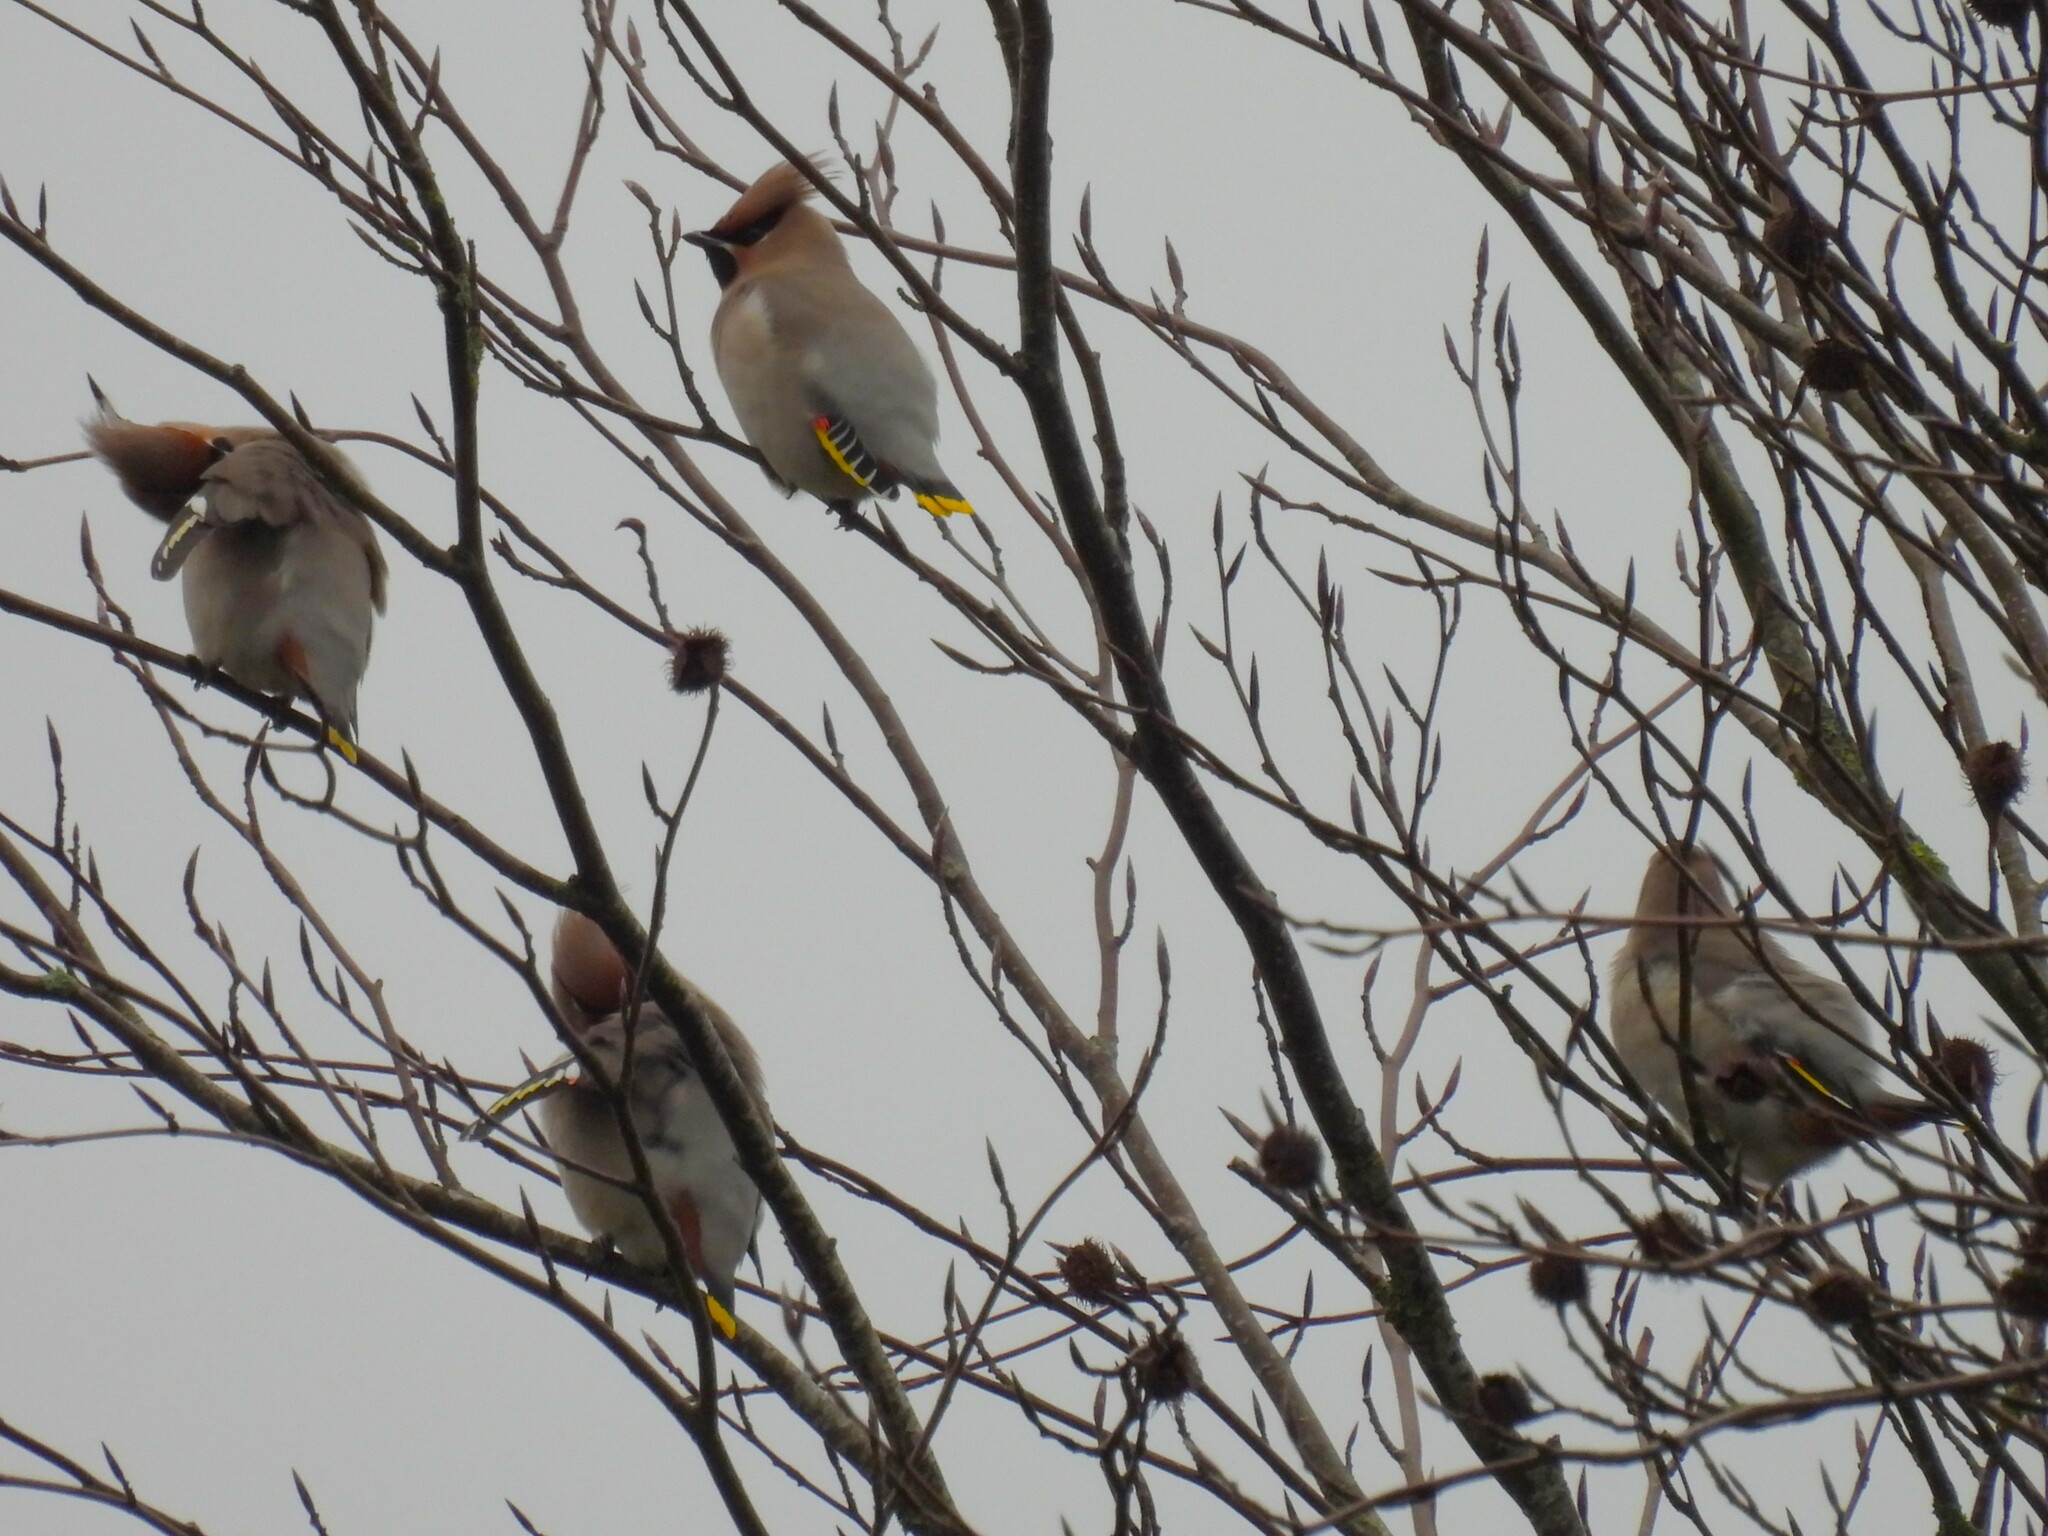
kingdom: Animalia
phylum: Chordata
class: Aves
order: Passeriformes
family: Bombycillidae
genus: Bombycilla
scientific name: Bombycilla garrulus
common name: Bohemian waxwing
